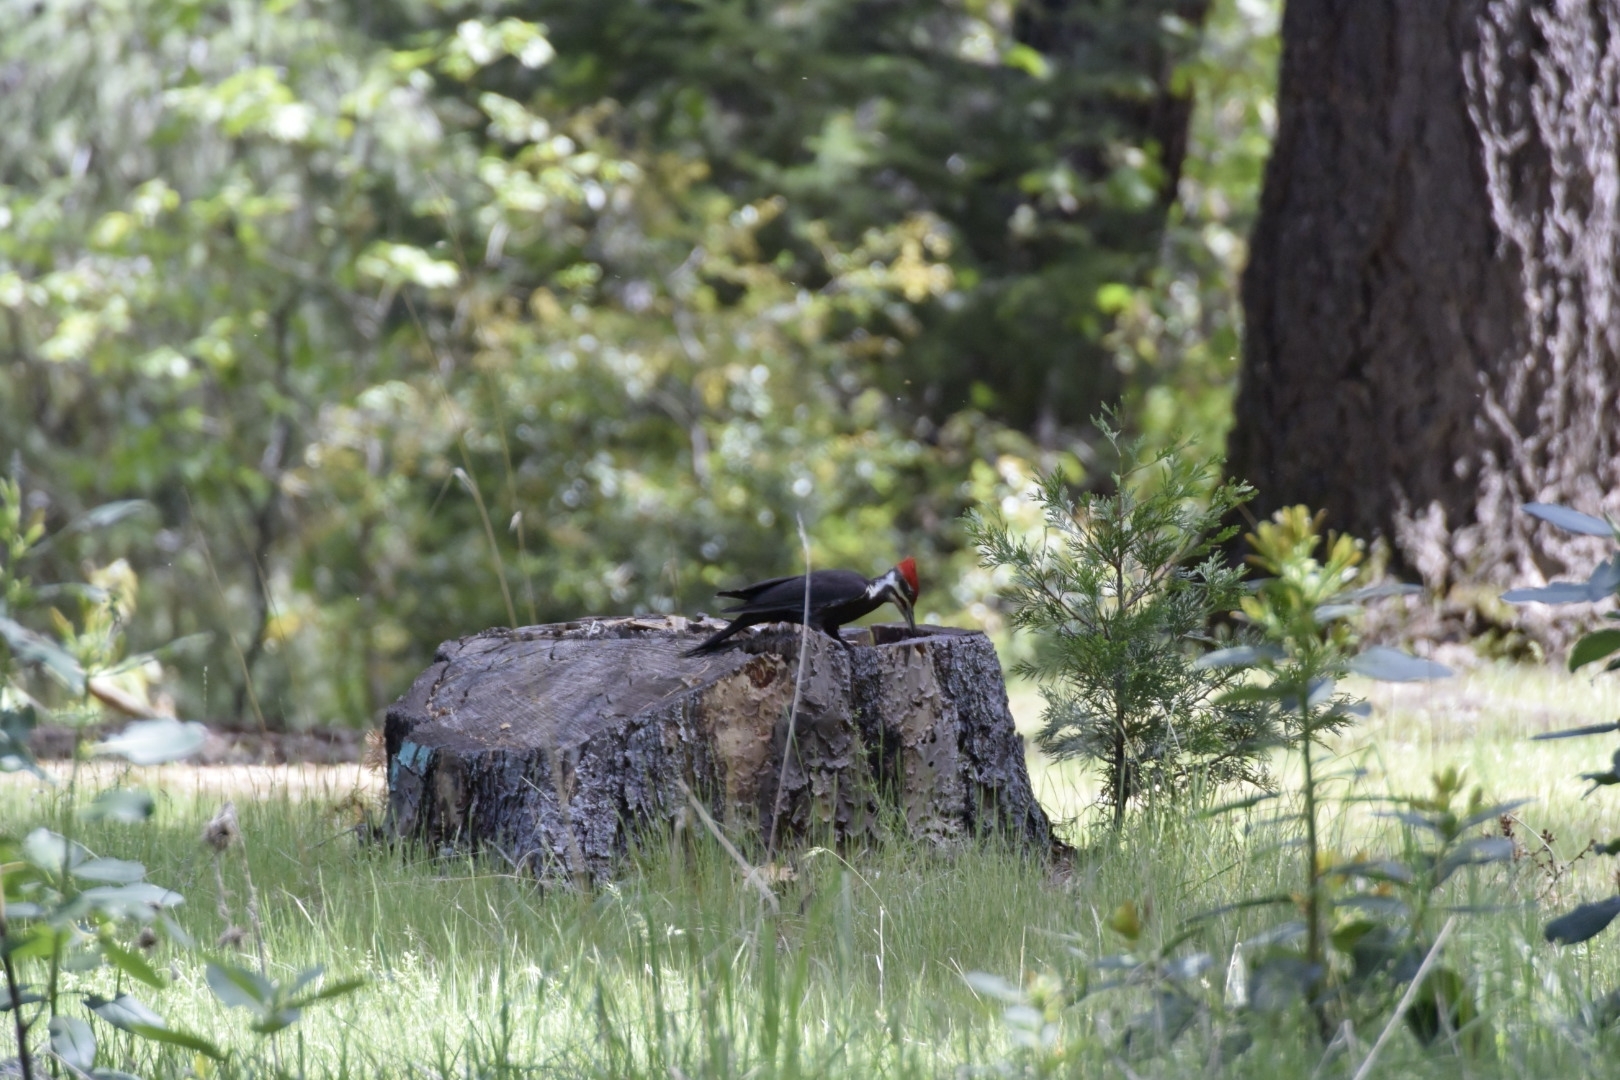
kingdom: Animalia
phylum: Chordata
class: Aves
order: Piciformes
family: Picidae
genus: Dryocopus
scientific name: Dryocopus pileatus
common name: Pileated woodpecker
